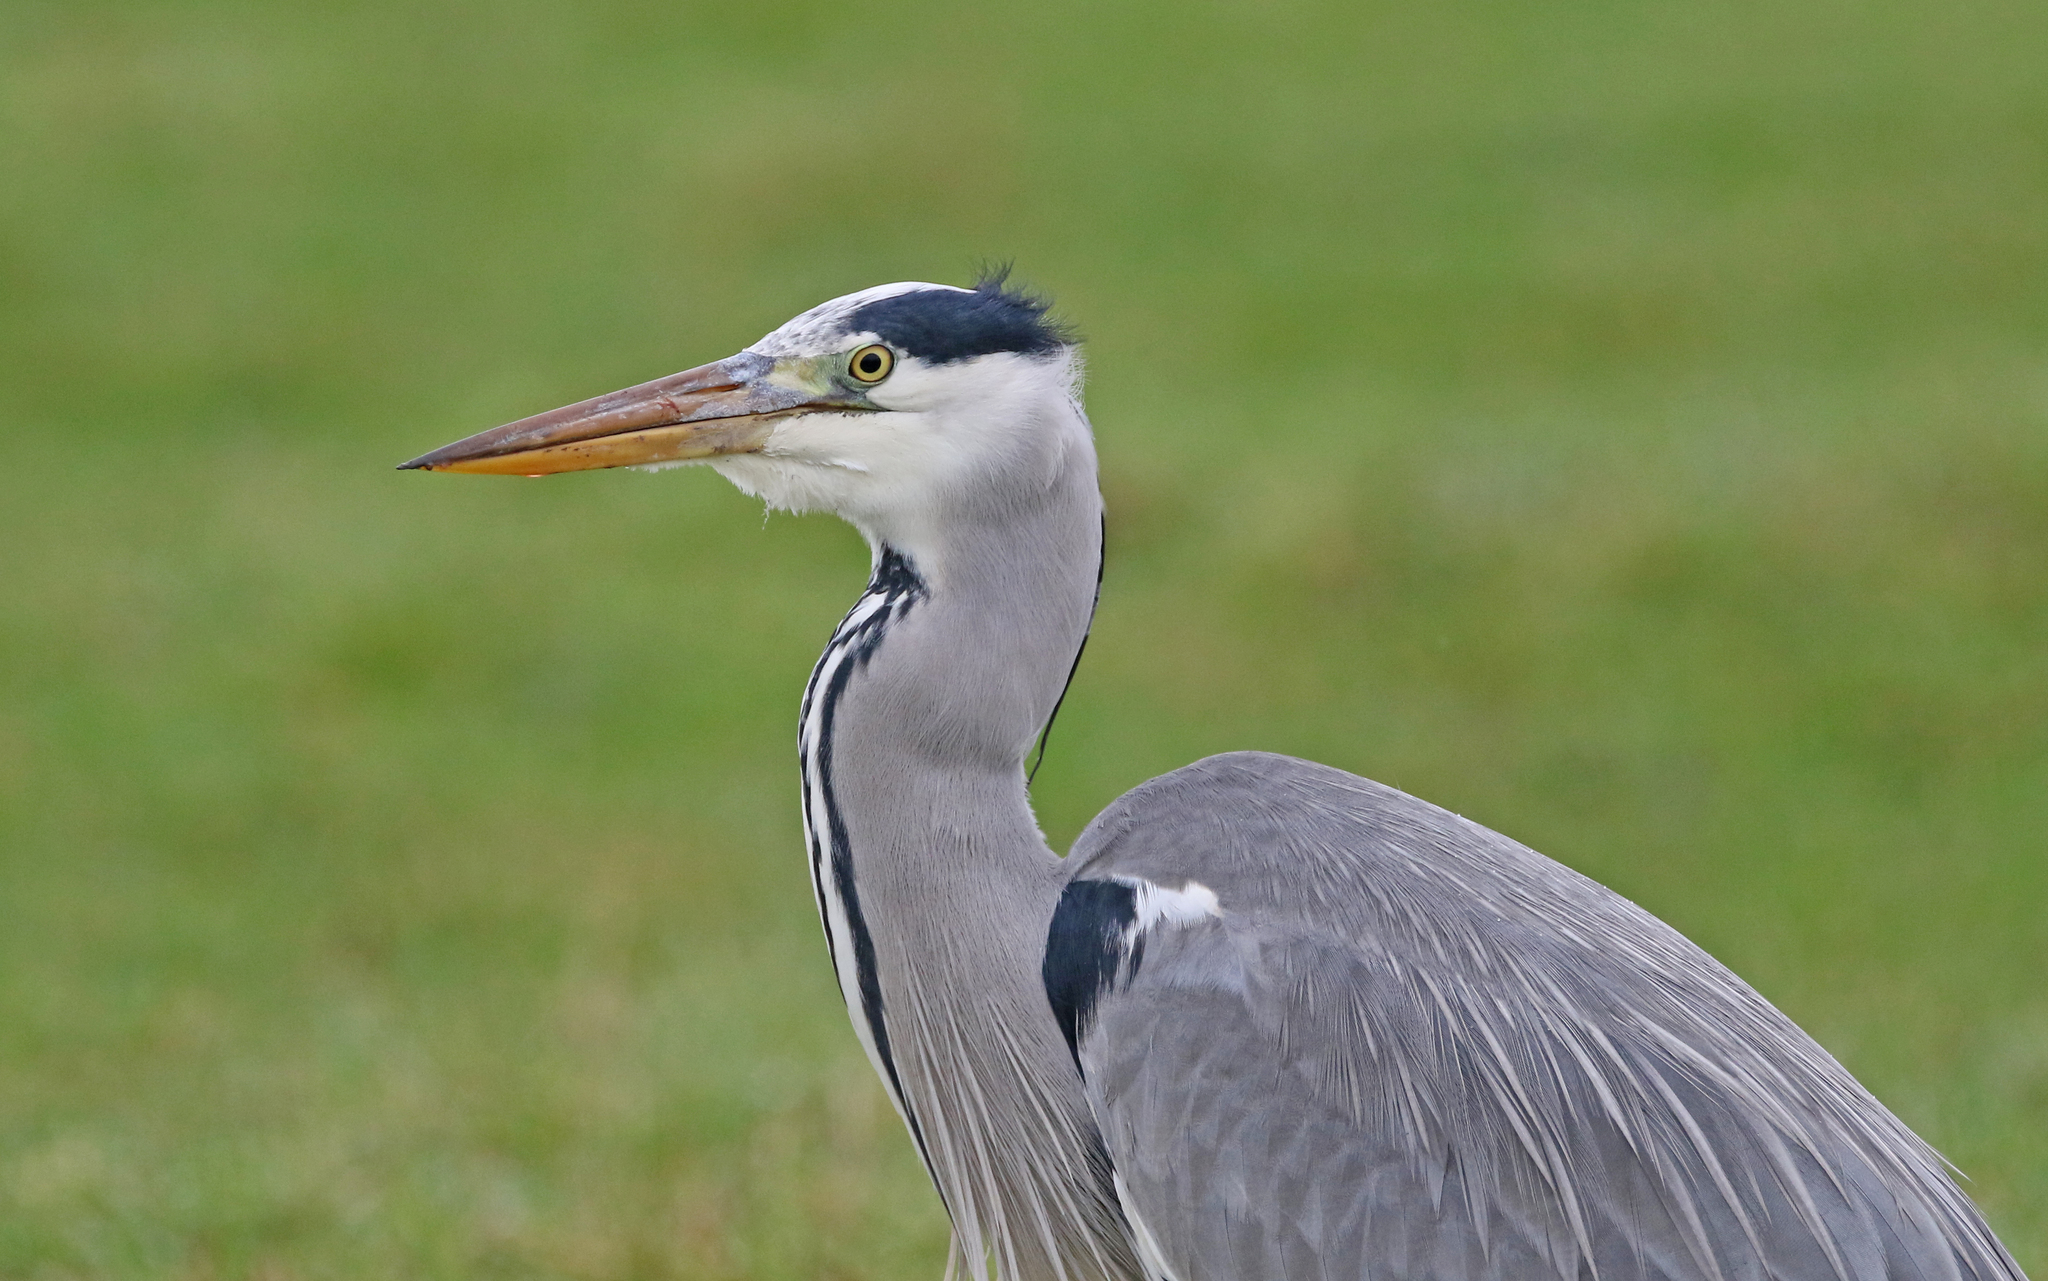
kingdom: Animalia
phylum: Chordata
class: Aves
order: Pelecaniformes
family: Ardeidae
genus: Ardea
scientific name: Ardea cinerea
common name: Grey heron
